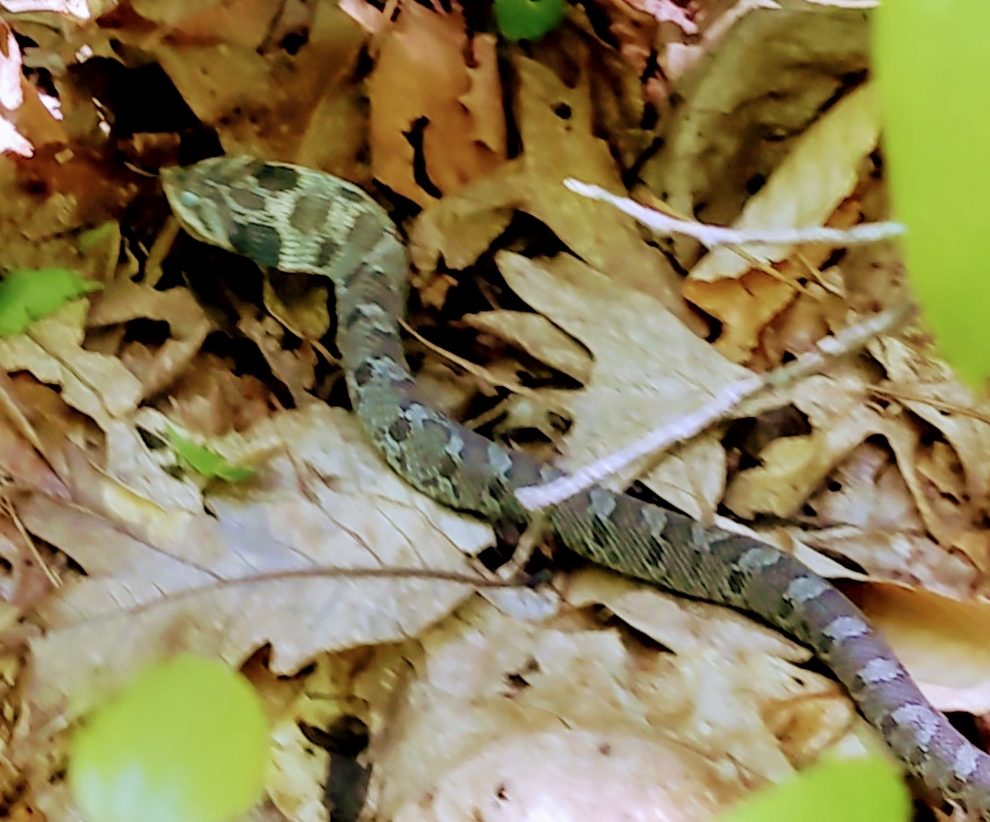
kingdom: Animalia
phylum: Chordata
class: Squamata
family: Colubridae
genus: Heterodon
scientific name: Heterodon platirhinos
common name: Eastern hognose snake
